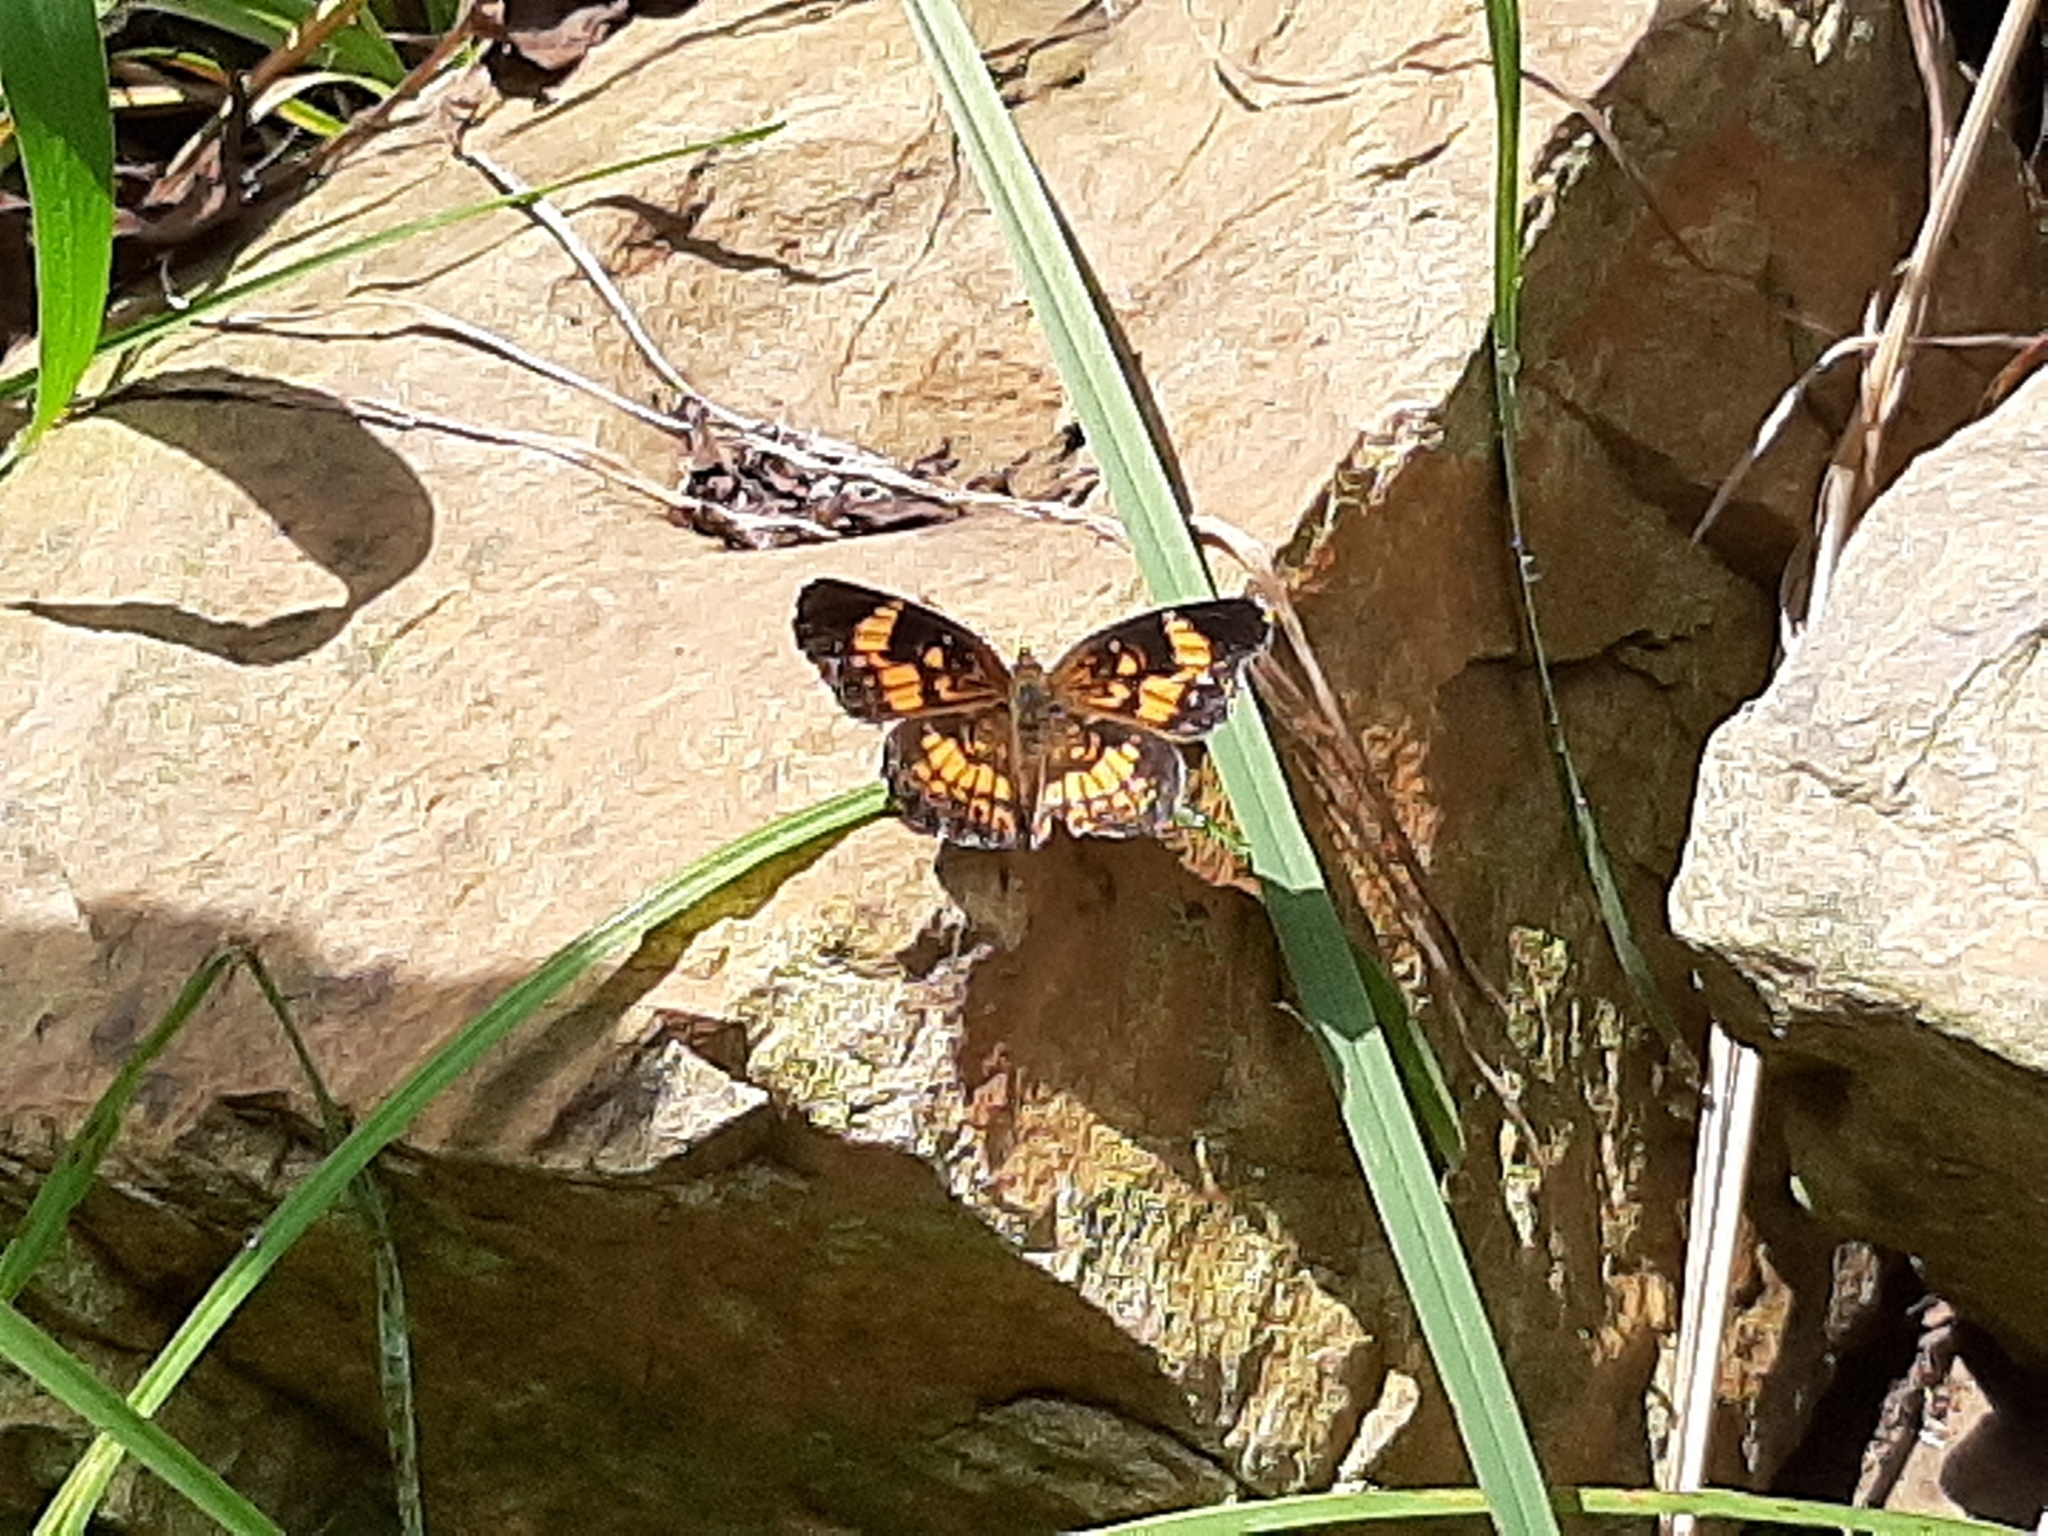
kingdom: Animalia
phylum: Arthropoda
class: Insecta
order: Lepidoptera
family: Nymphalidae
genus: Chlosyne
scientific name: Chlosyne nycteis
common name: Silvery checkerspot
